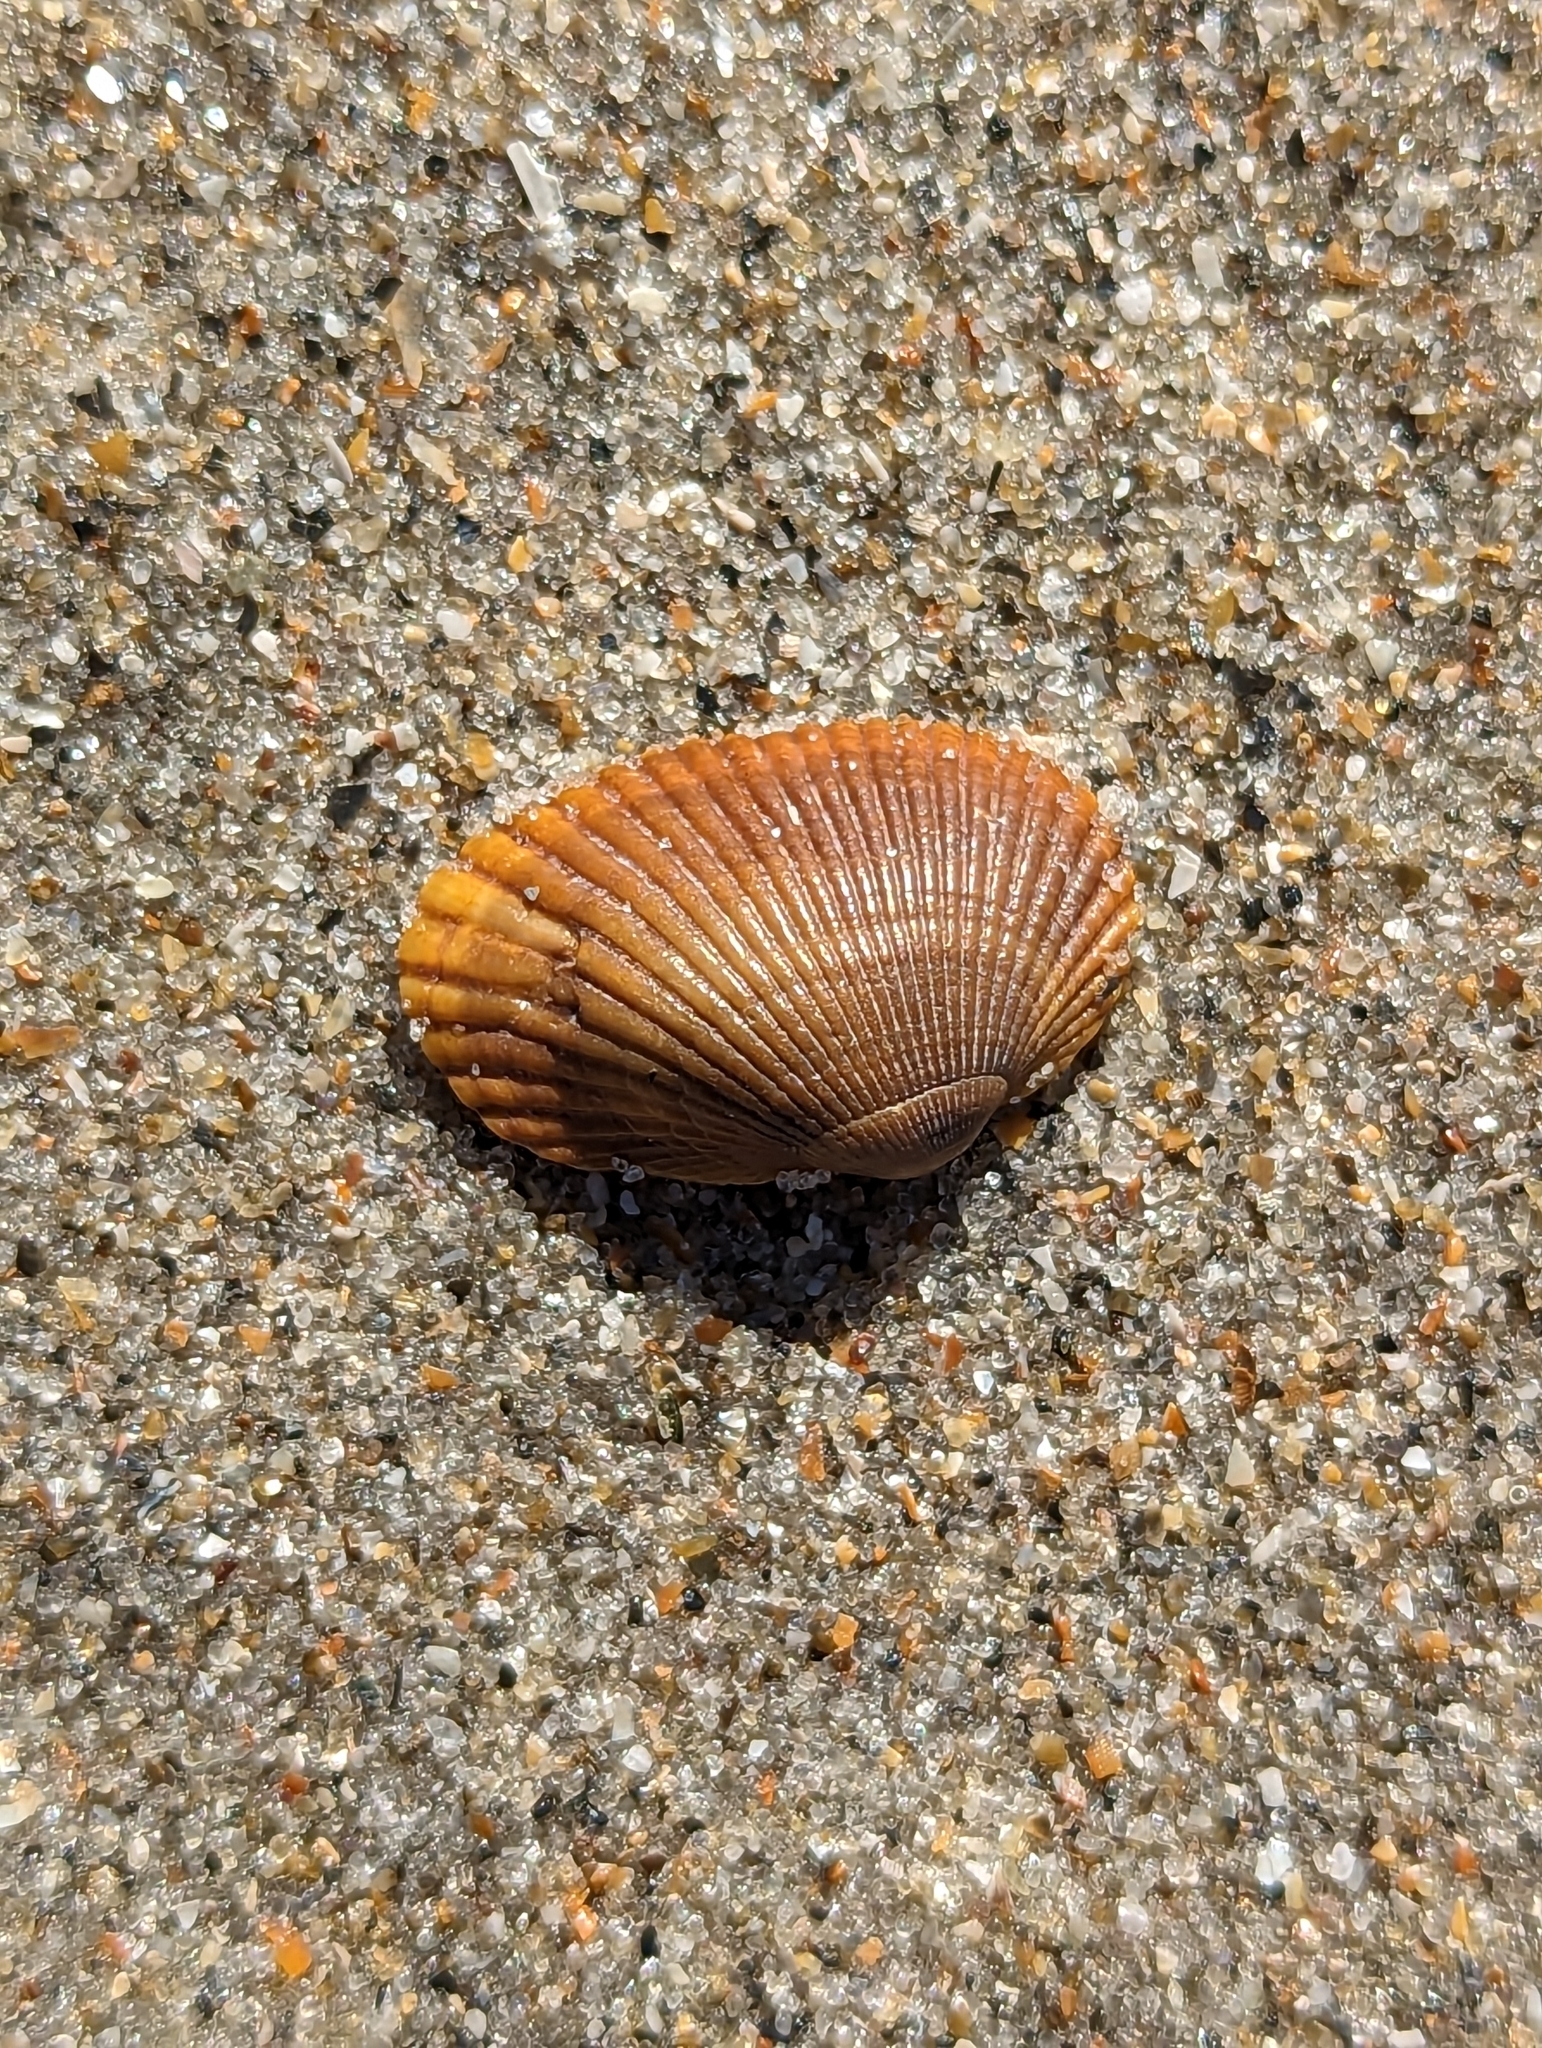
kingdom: Animalia
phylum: Mollusca
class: Bivalvia
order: Arcida
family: Arcidae
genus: Anadara
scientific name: Anadara transversa
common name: Transverse ark
